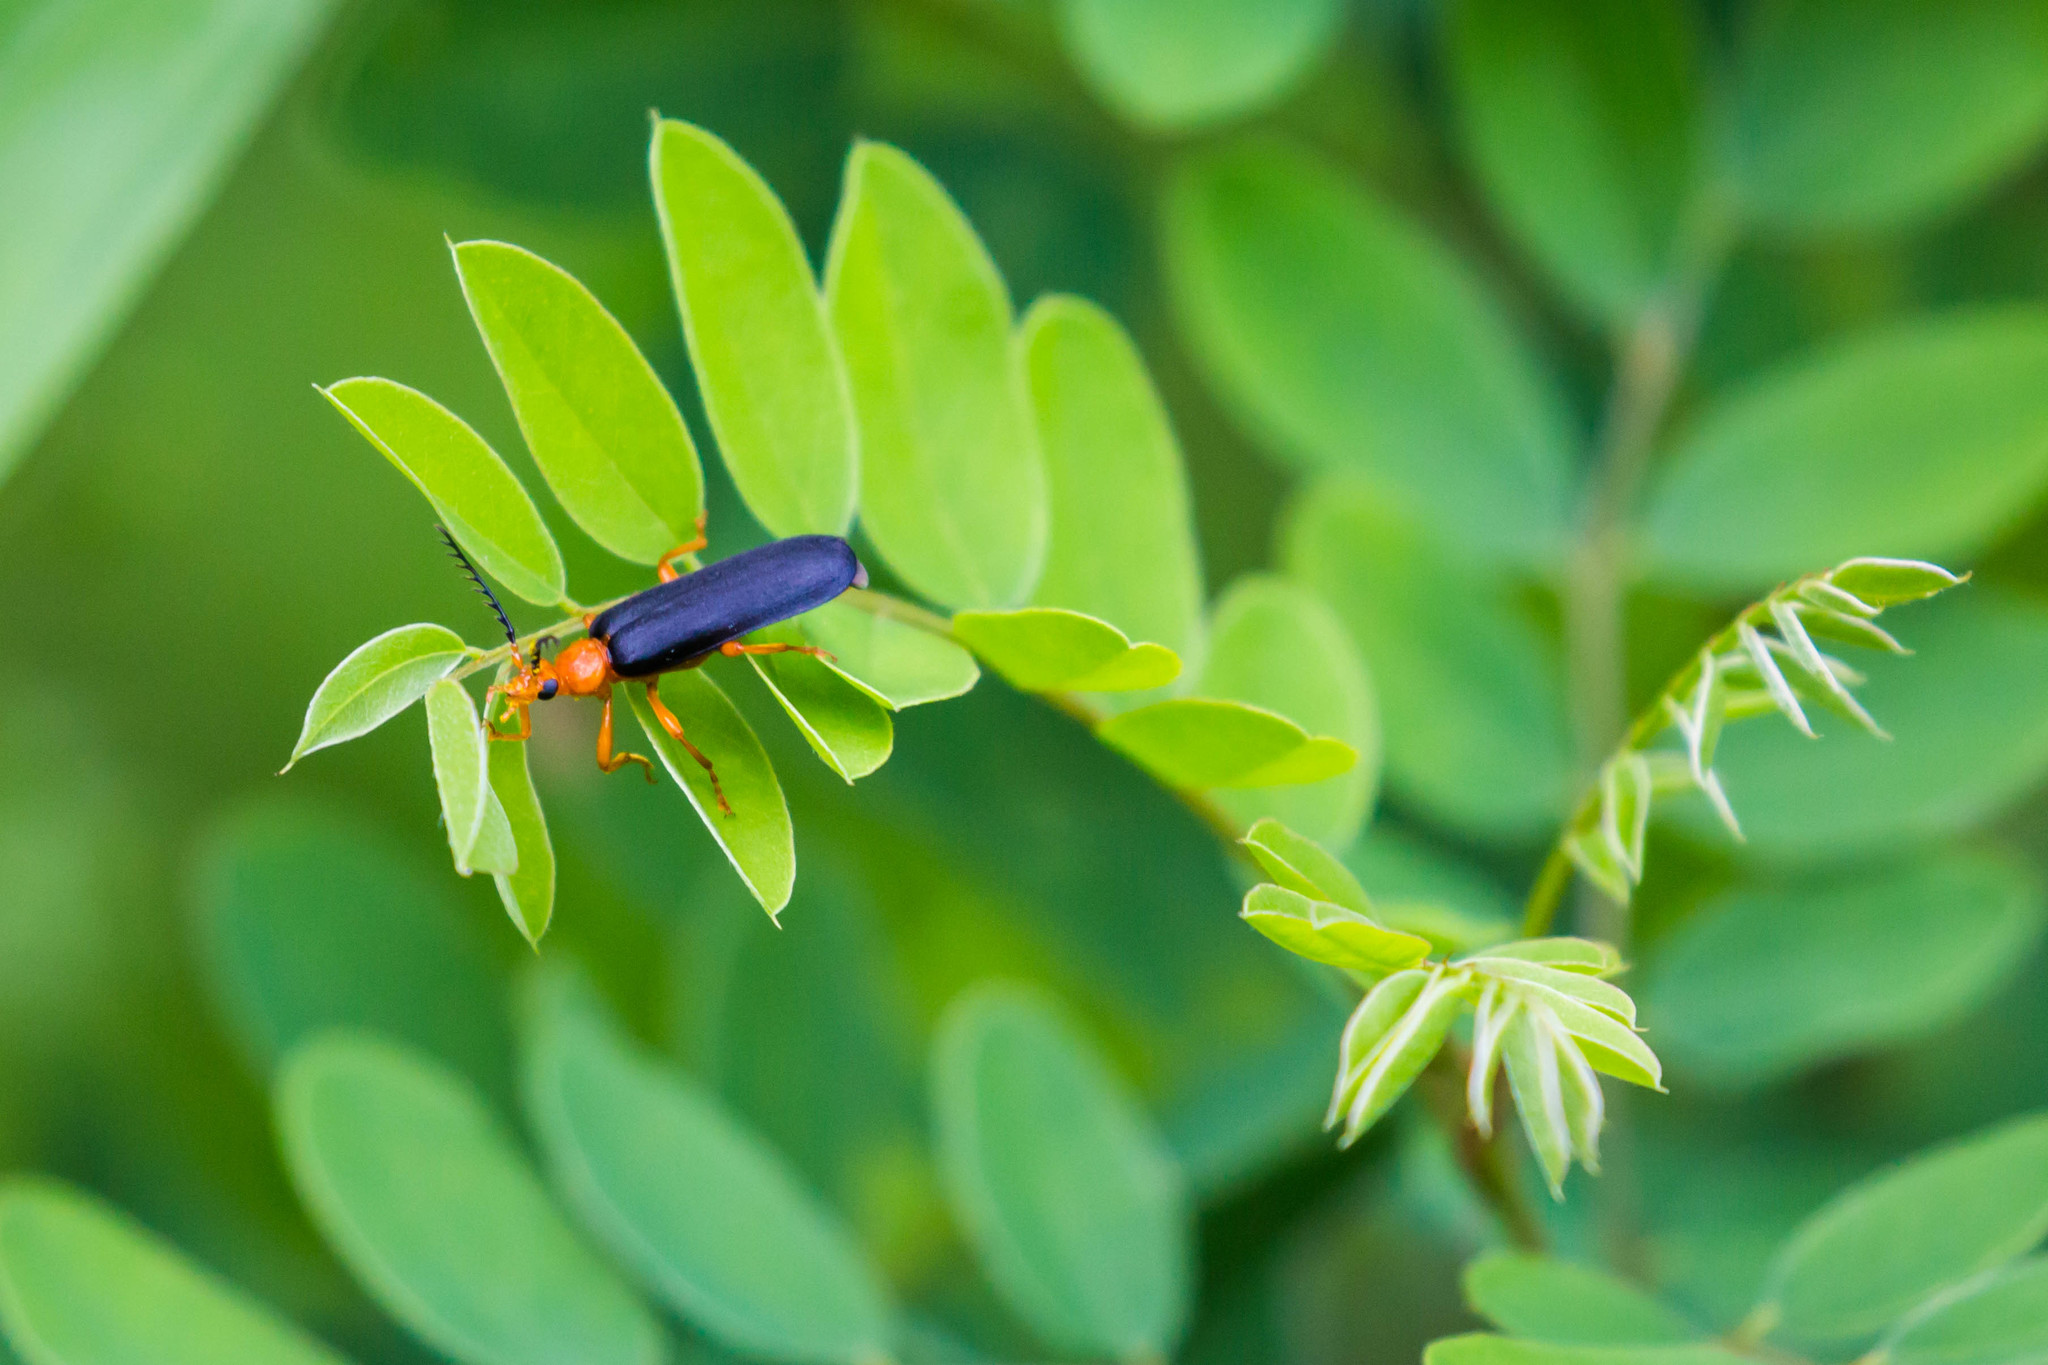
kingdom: Animalia
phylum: Arthropoda
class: Insecta
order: Coleoptera
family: Pyrochroidae
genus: Neopyrochroa
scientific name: Neopyrochroa flabellata
